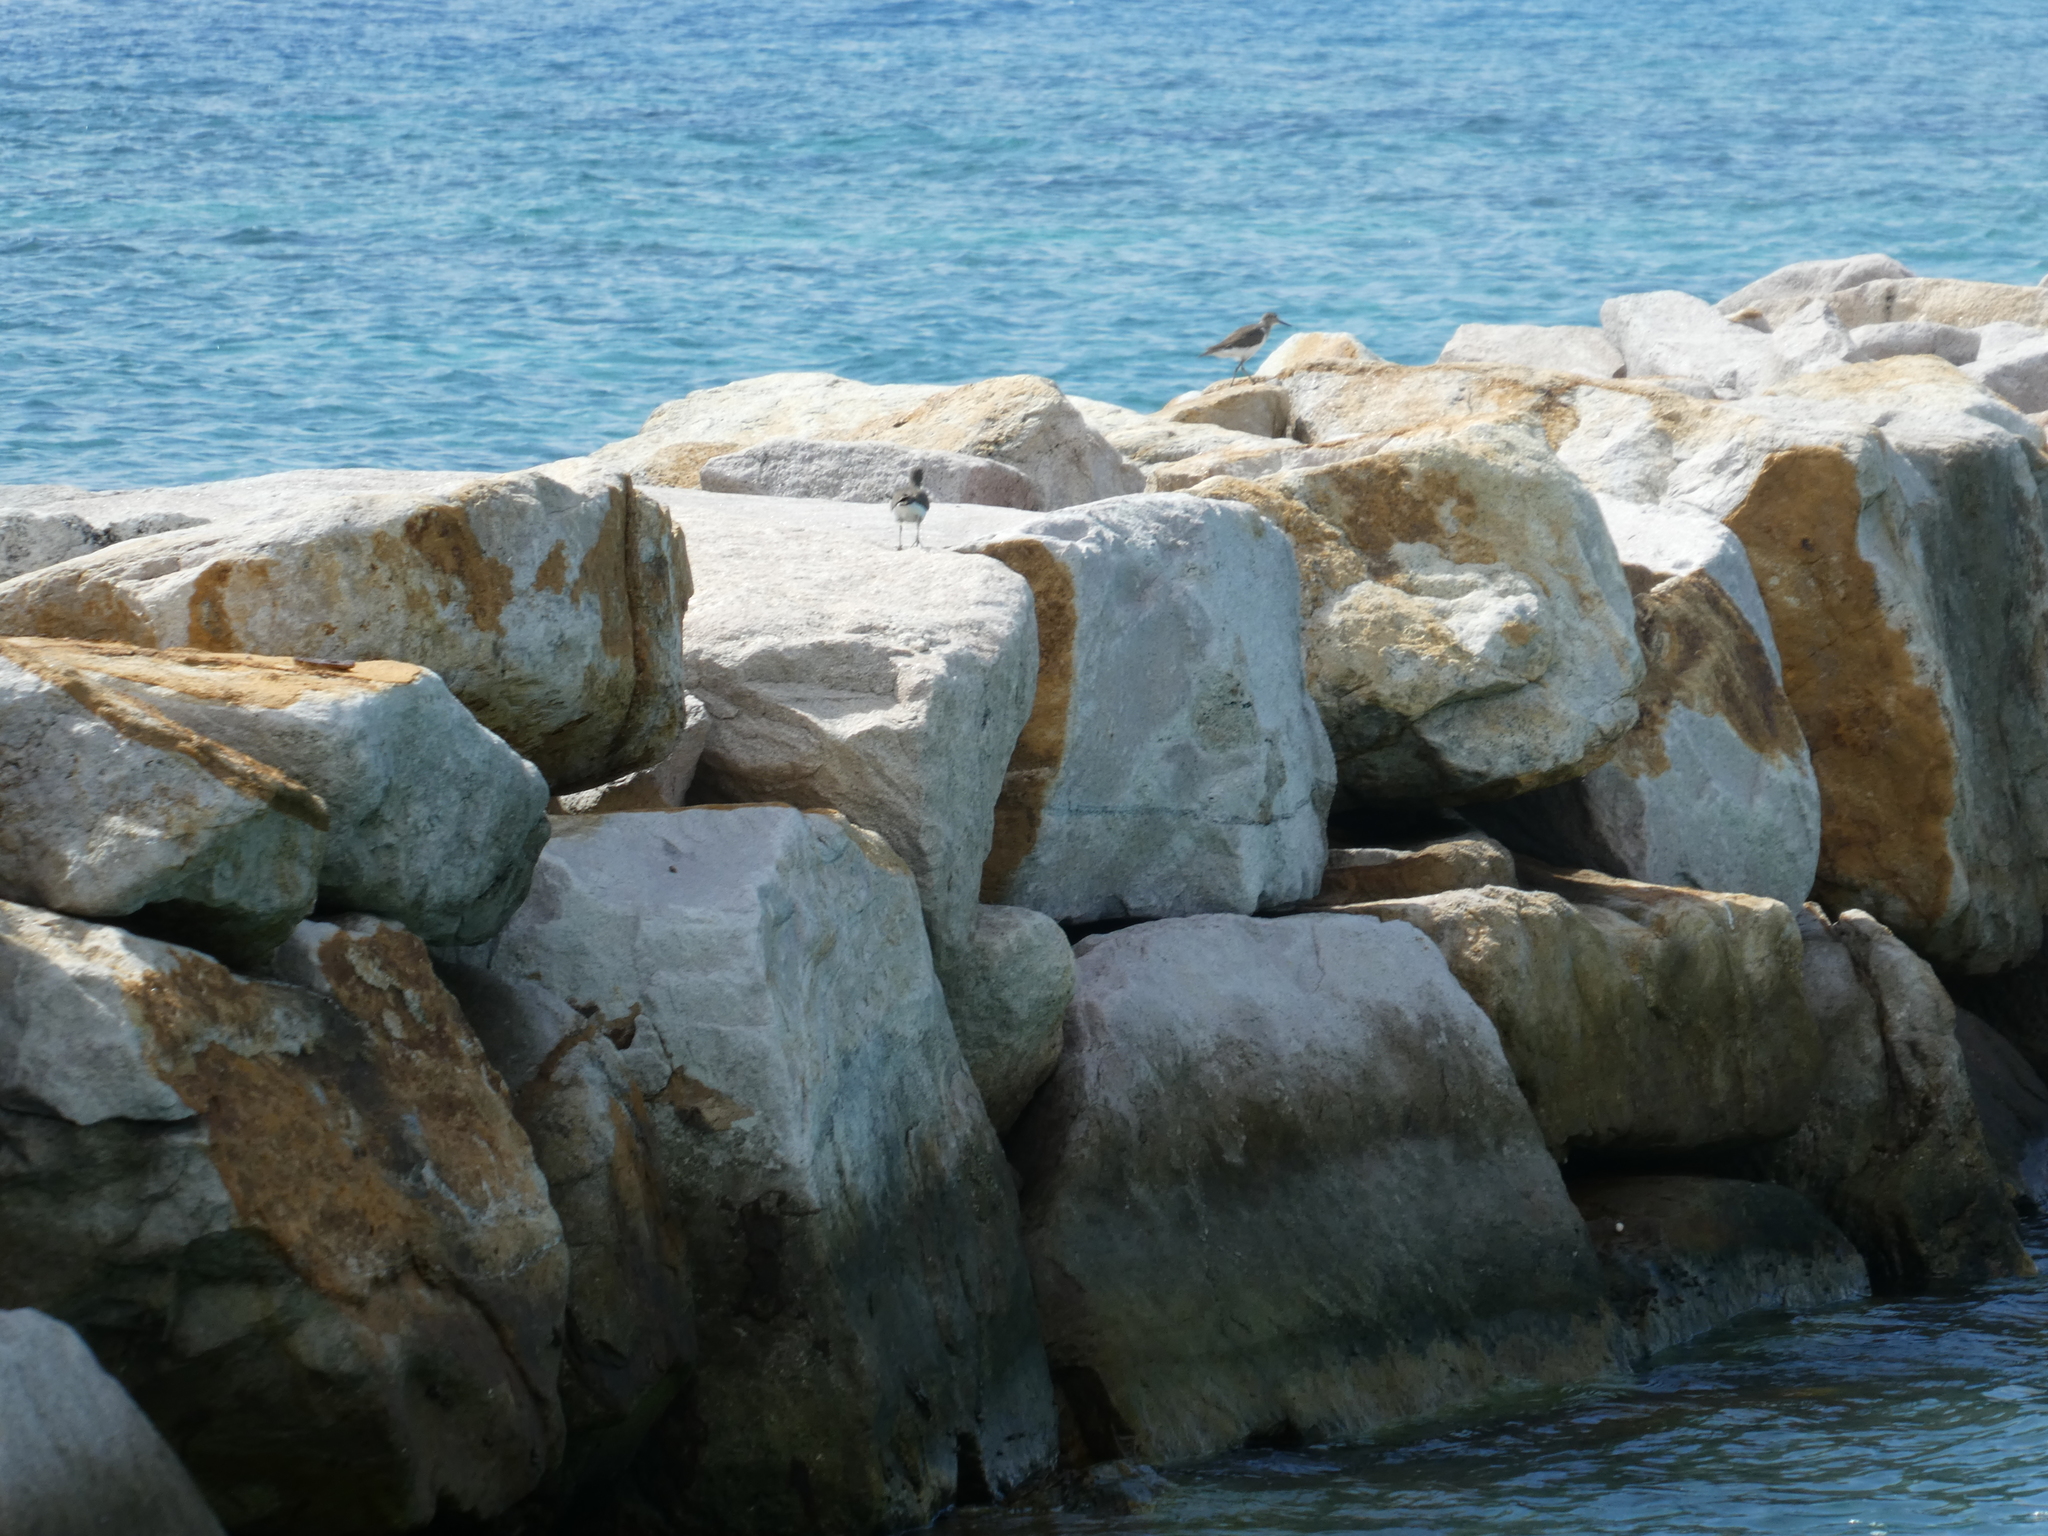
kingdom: Animalia
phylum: Chordata
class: Aves
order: Charadriiformes
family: Scolopacidae
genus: Actitis
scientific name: Actitis hypoleucos
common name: Common sandpiper
